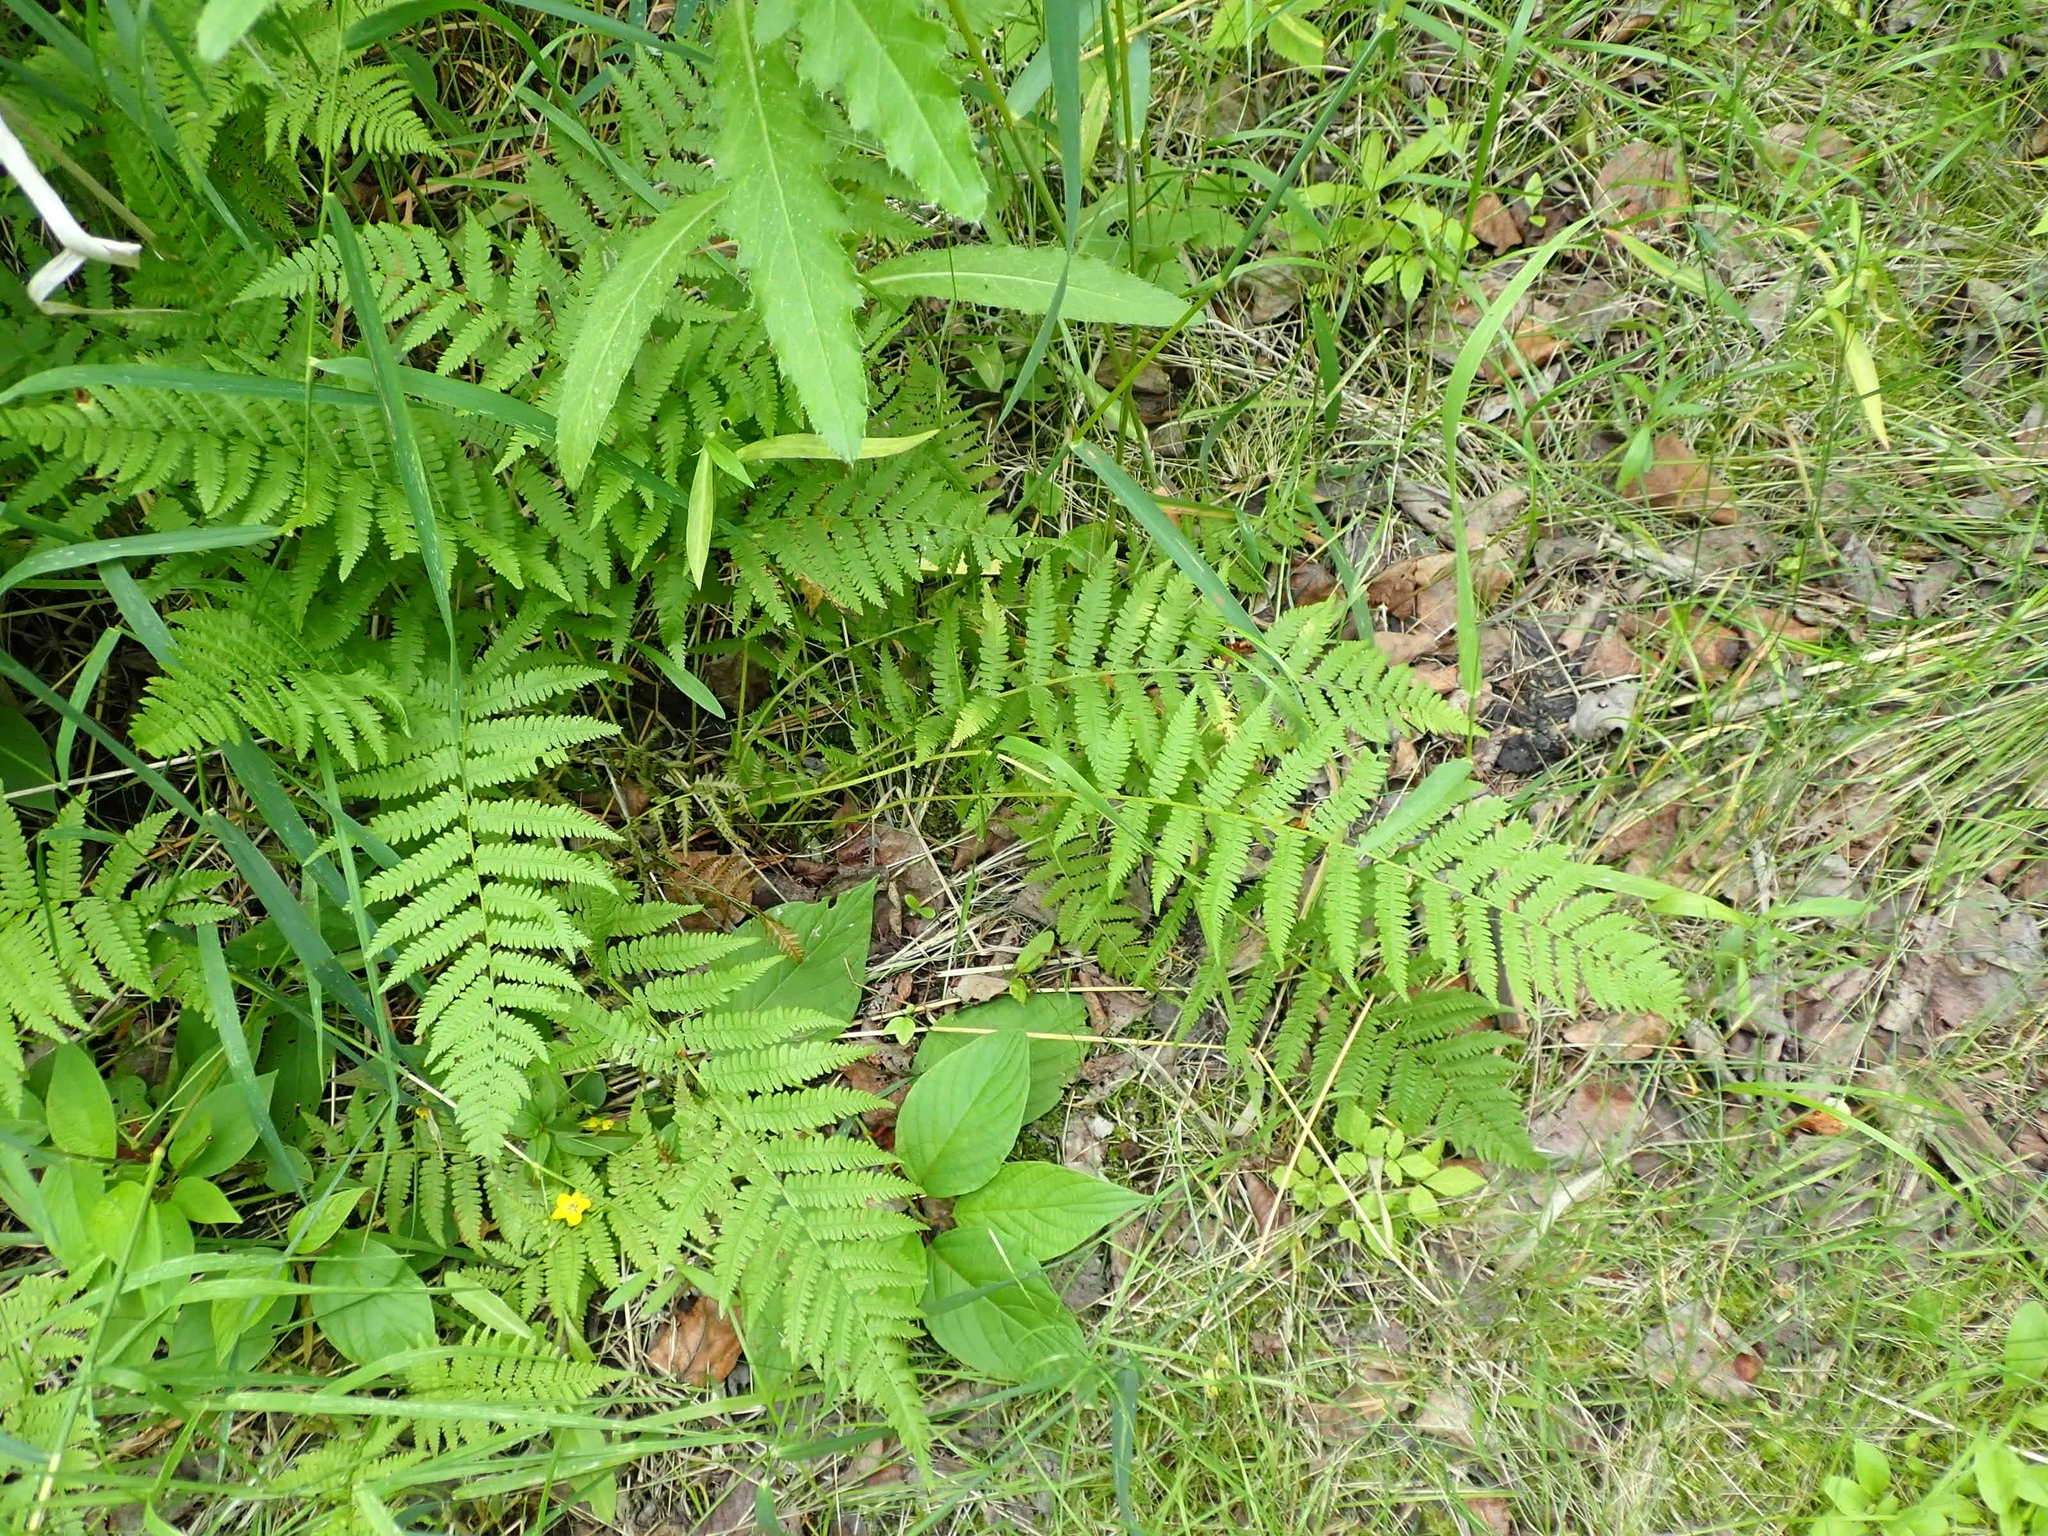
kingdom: Plantae
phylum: Tracheophyta
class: Polypodiopsida
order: Polypodiales
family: Athyriaceae
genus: Athyrium
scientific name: Athyrium angustum
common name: Northern lady fern
